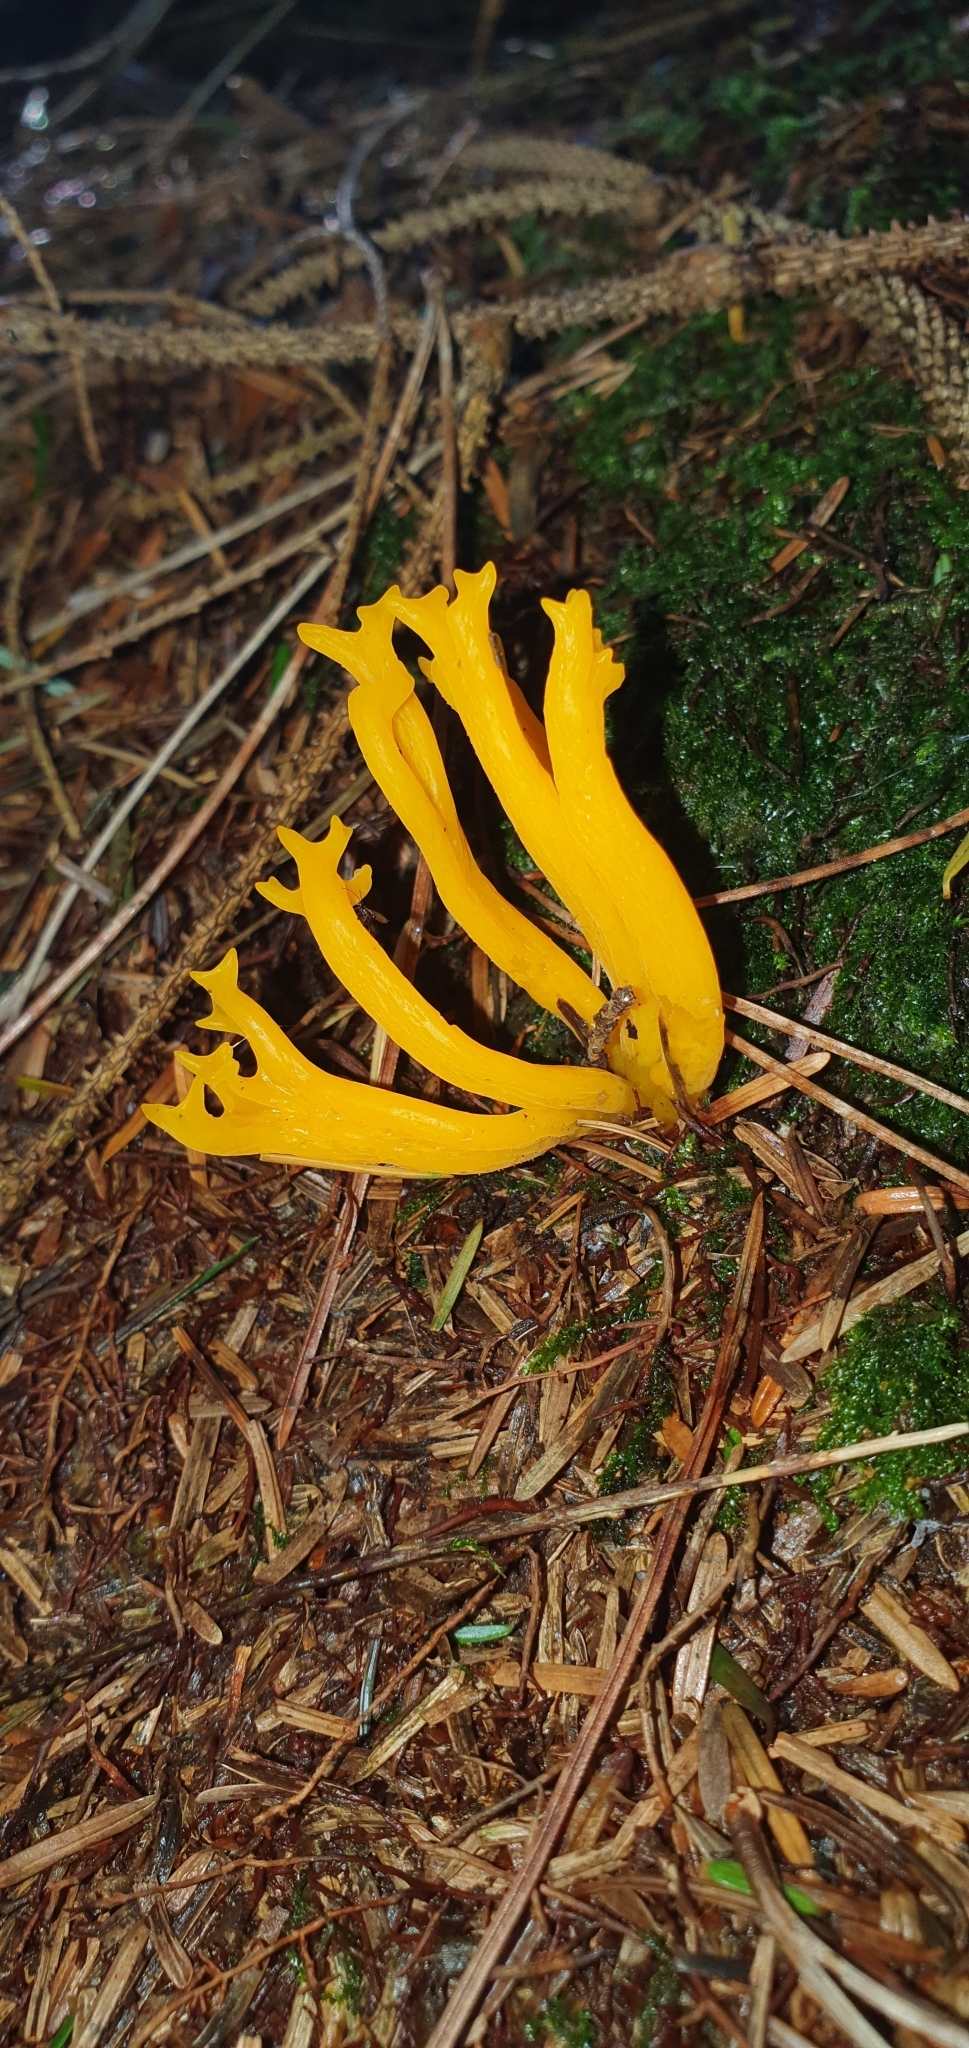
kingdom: Fungi
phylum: Basidiomycota
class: Dacrymycetes
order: Dacrymycetales
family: Dacrymycetaceae
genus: Calocera
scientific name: Calocera viscosa
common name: Yellow stagshorn
